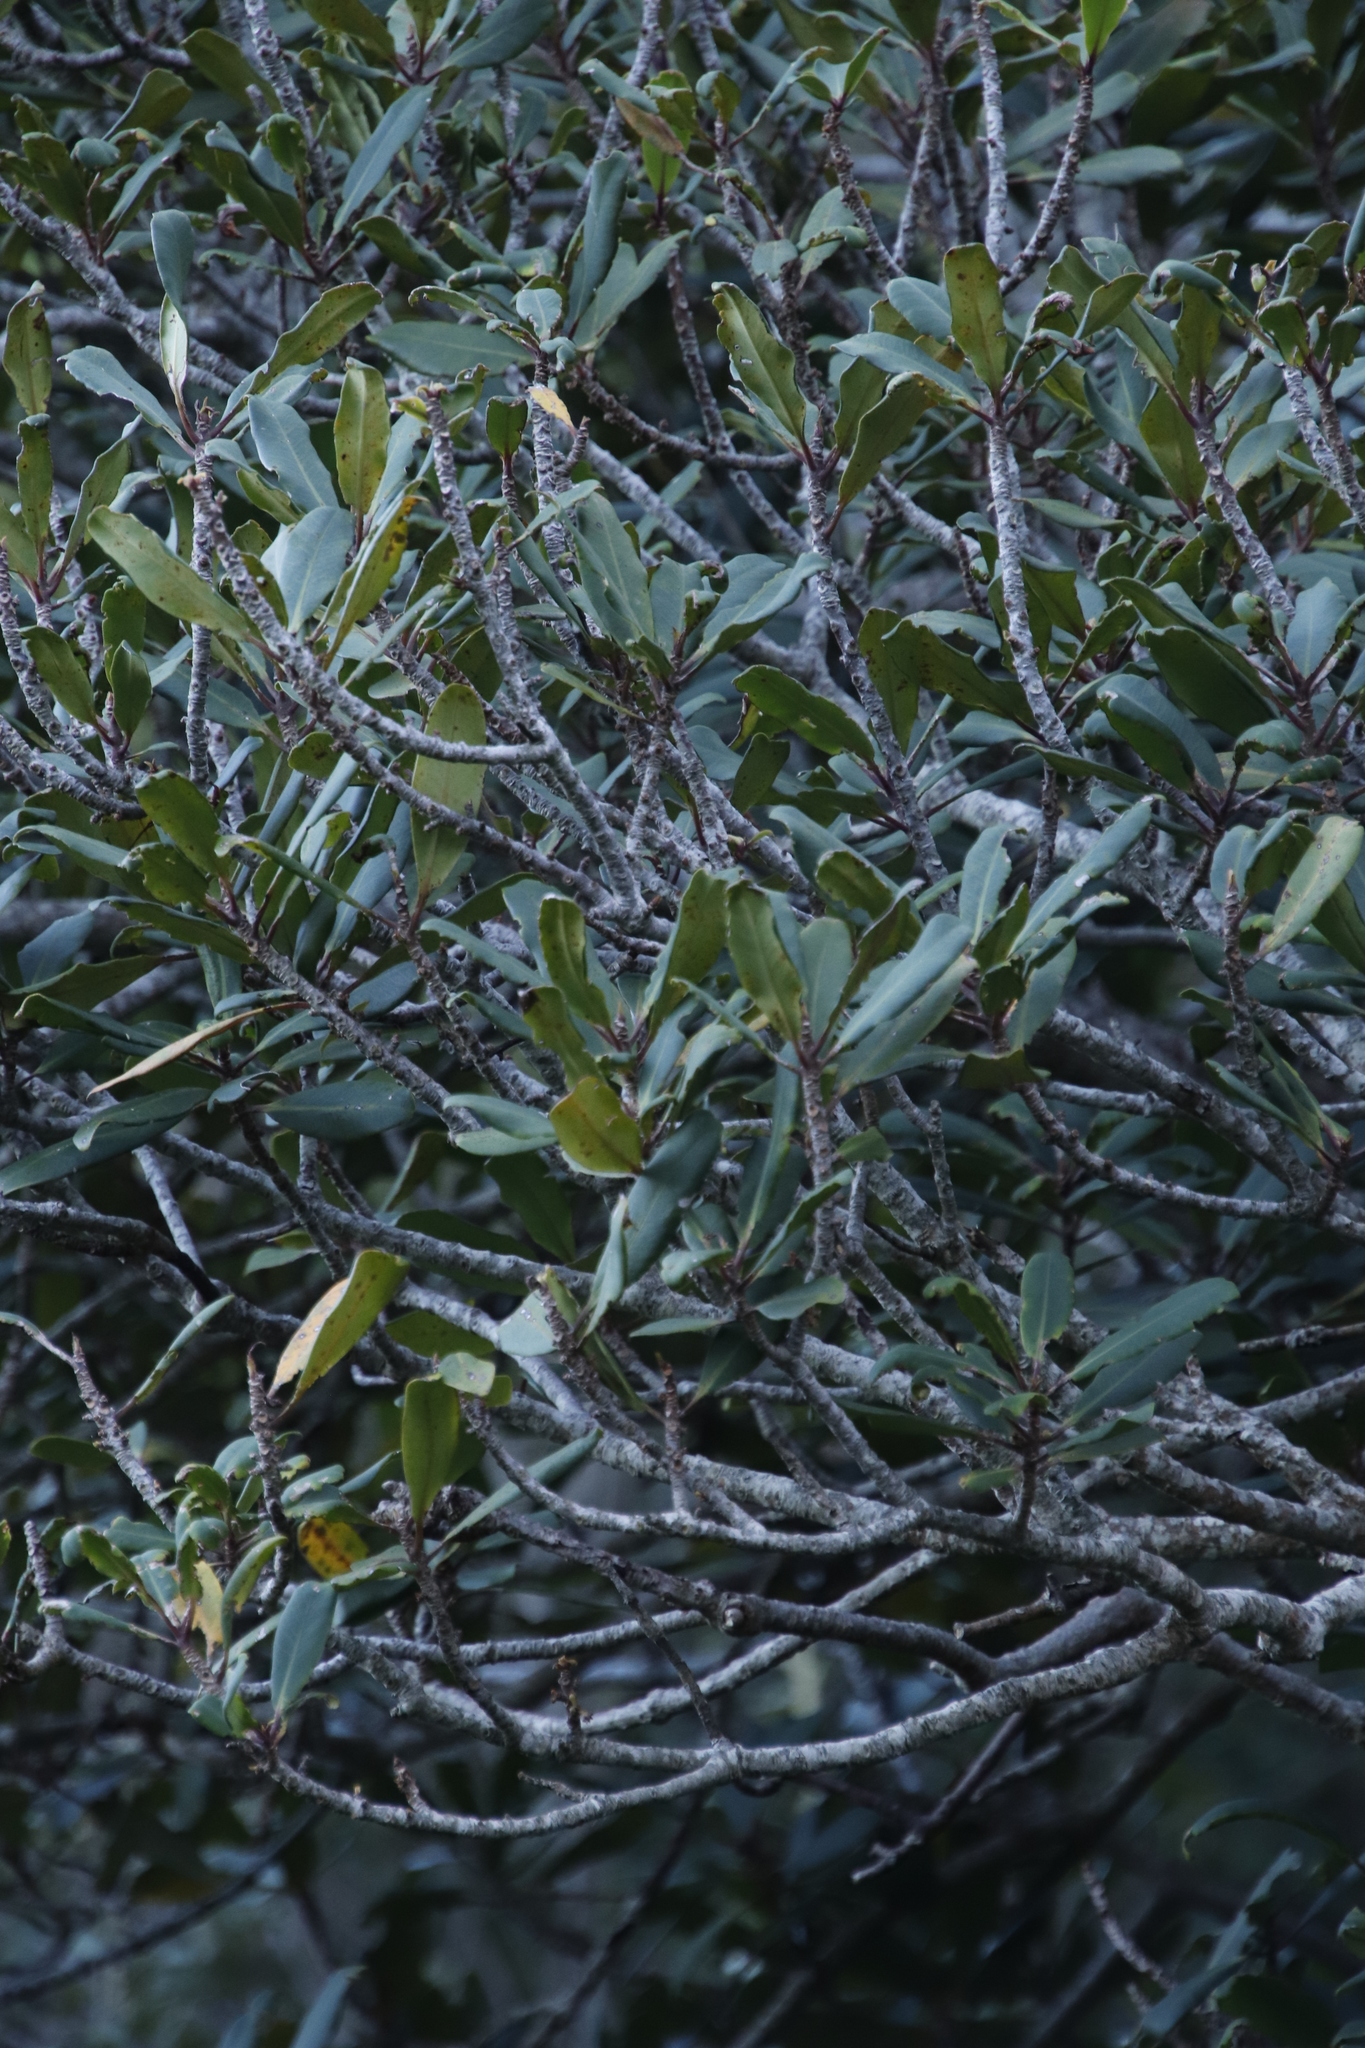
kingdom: Plantae
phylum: Tracheophyta
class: Magnoliopsida
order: Ericales
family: Primulaceae
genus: Myrsine
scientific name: Myrsine melanophloeos
